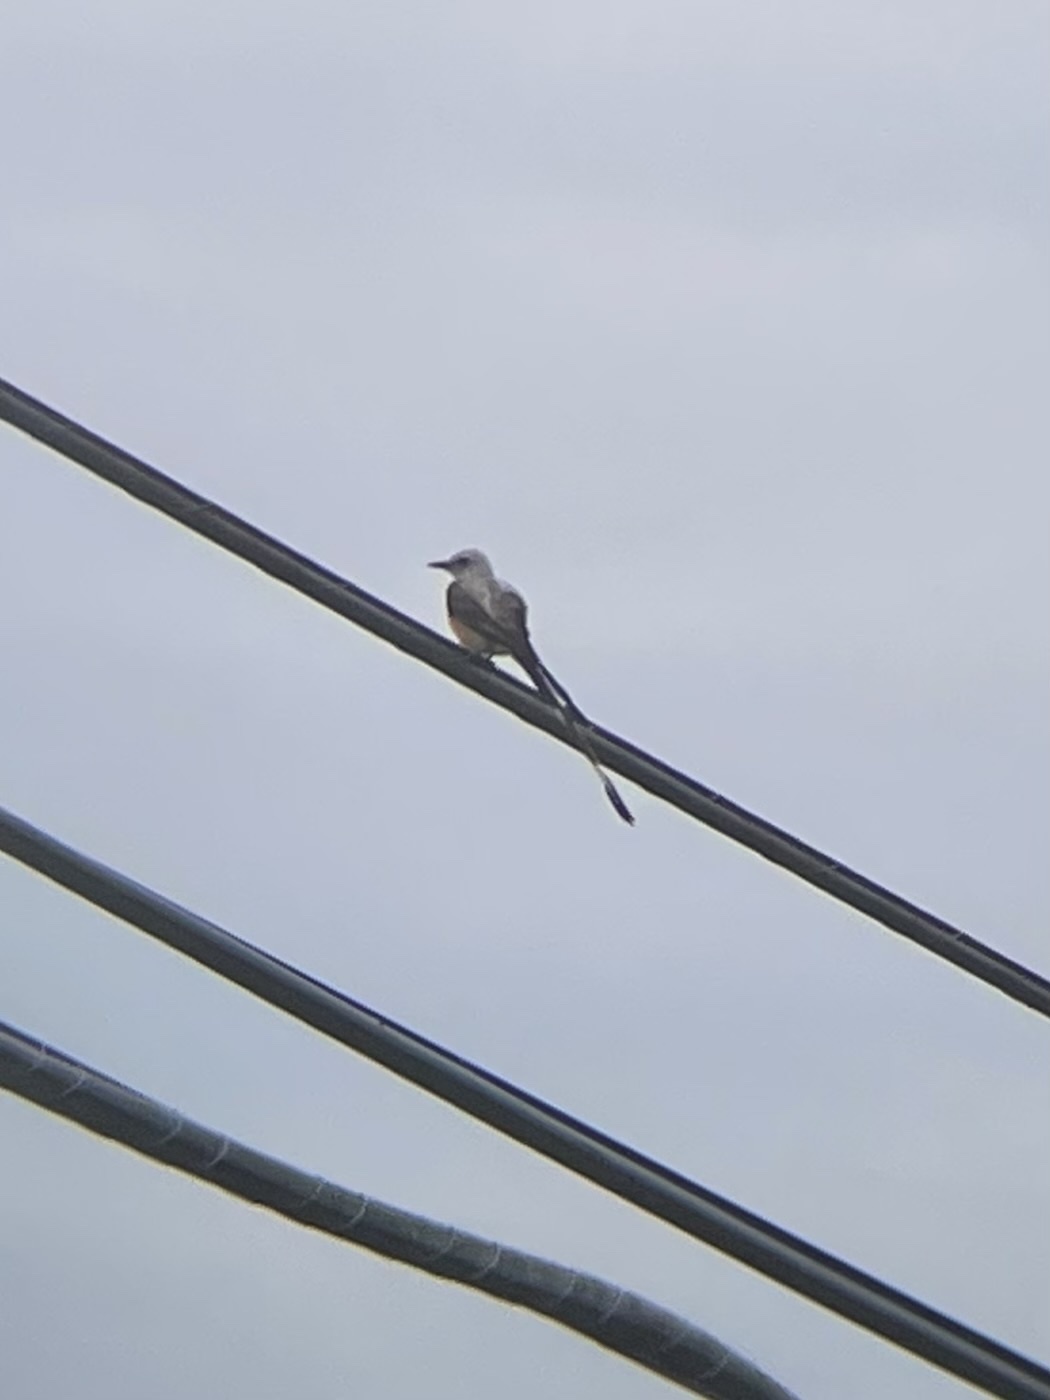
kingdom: Animalia
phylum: Chordata
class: Aves
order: Passeriformes
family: Tyrannidae
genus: Tyrannus
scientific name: Tyrannus forficatus
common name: Scissor-tailed flycatcher
